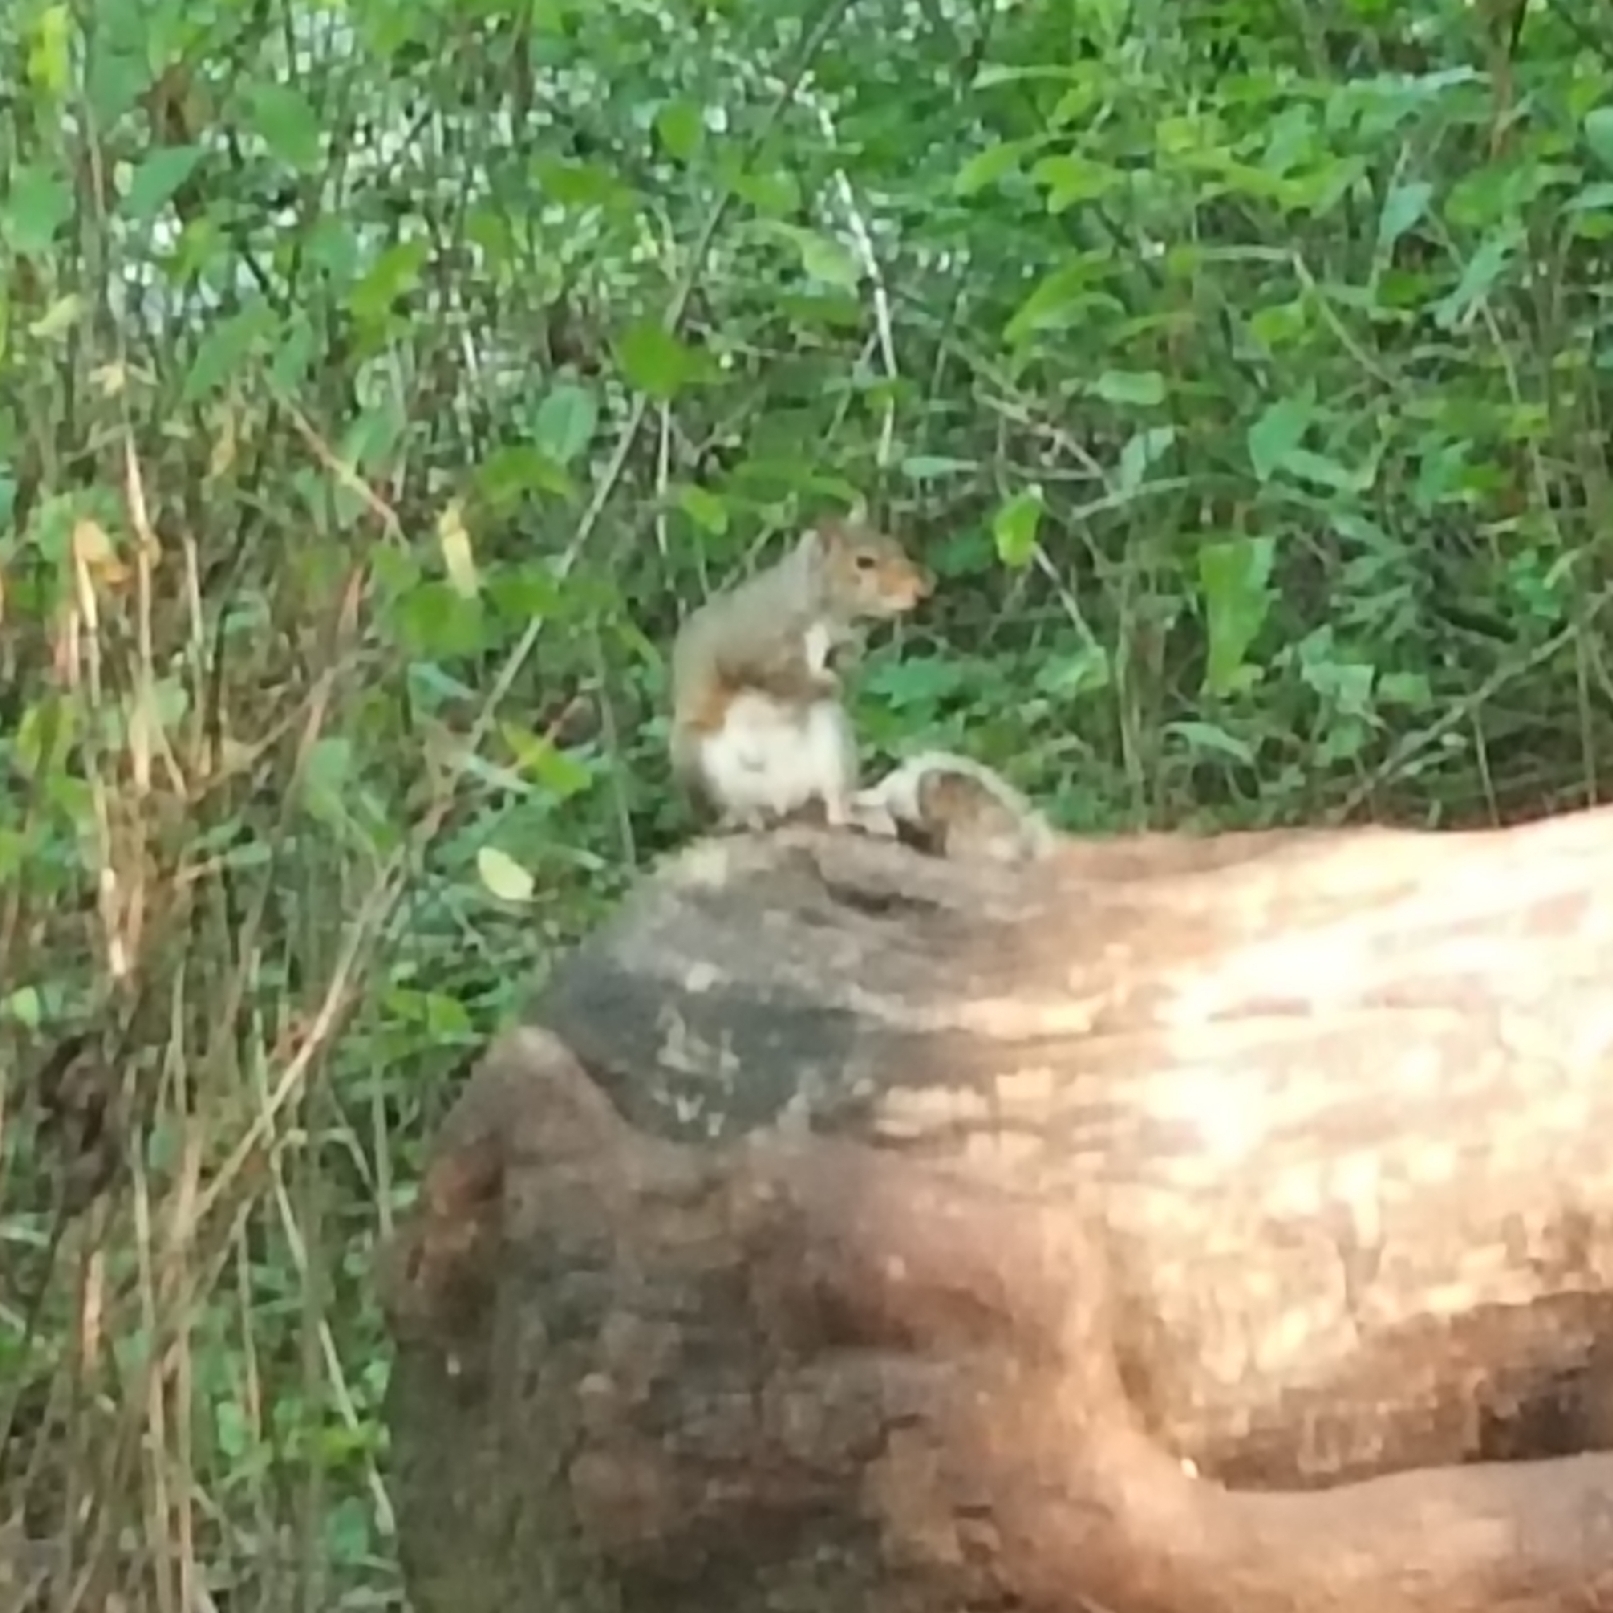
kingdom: Animalia
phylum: Chordata
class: Mammalia
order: Rodentia
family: Sciuridae
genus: Sciurus
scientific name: Sciurus carolinensis
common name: Eastern gray squirrel
